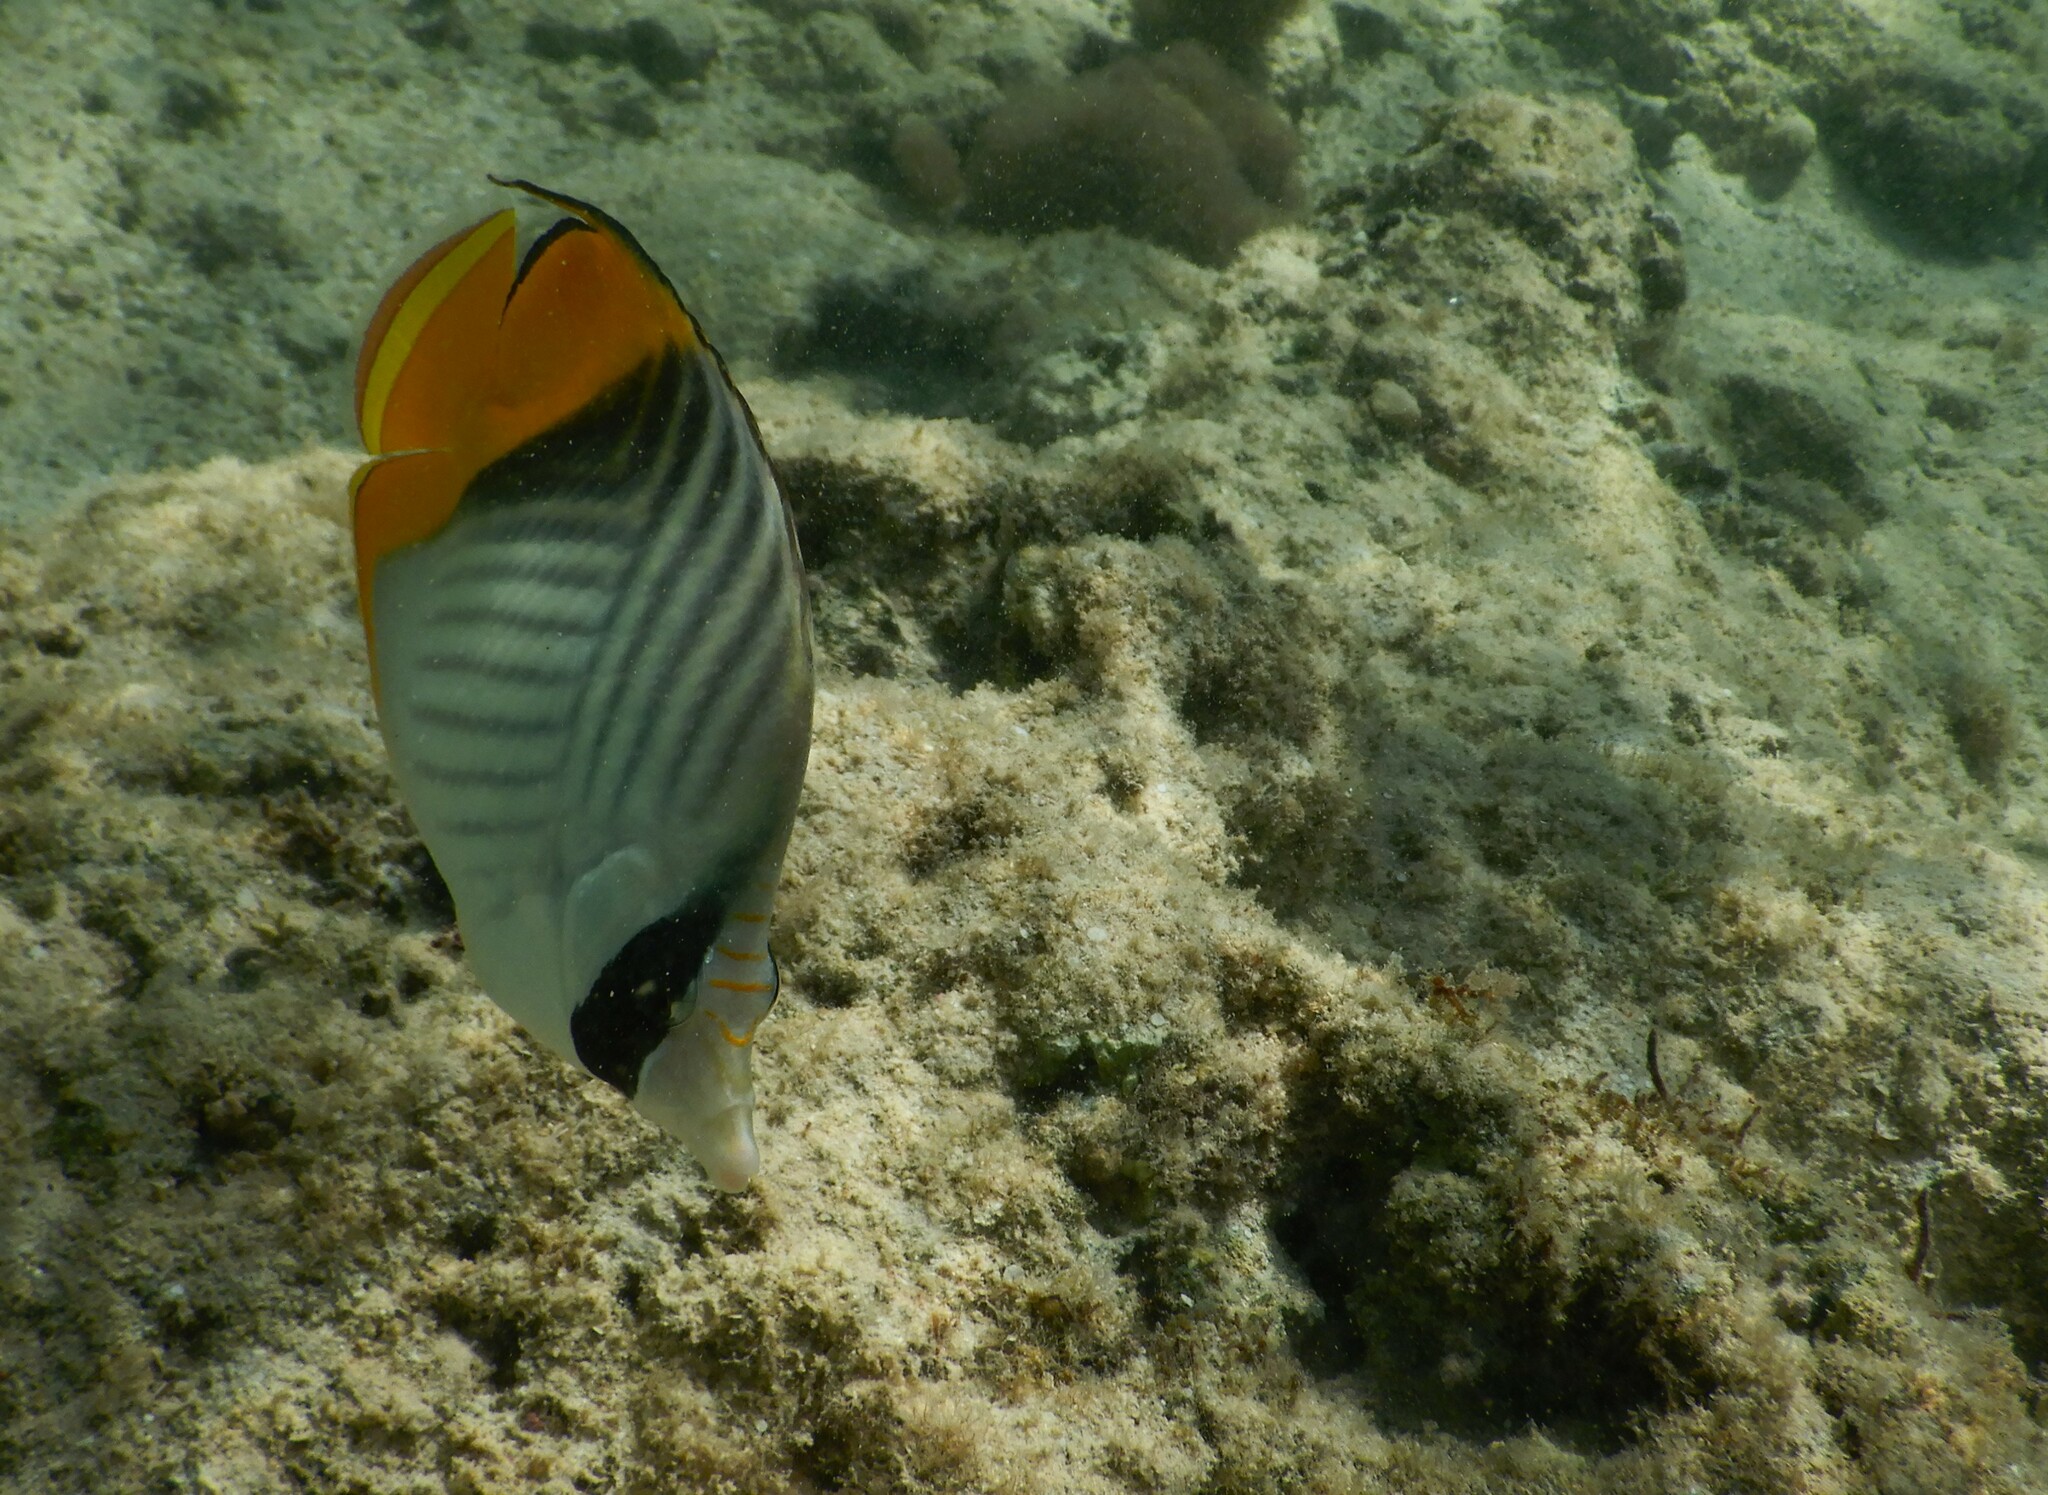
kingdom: Animalia
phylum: Chordata
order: Perciformes
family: Chaetodontidae
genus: Chaetodon
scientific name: Chaetodon auriga
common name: Threadfin butterflyfish
